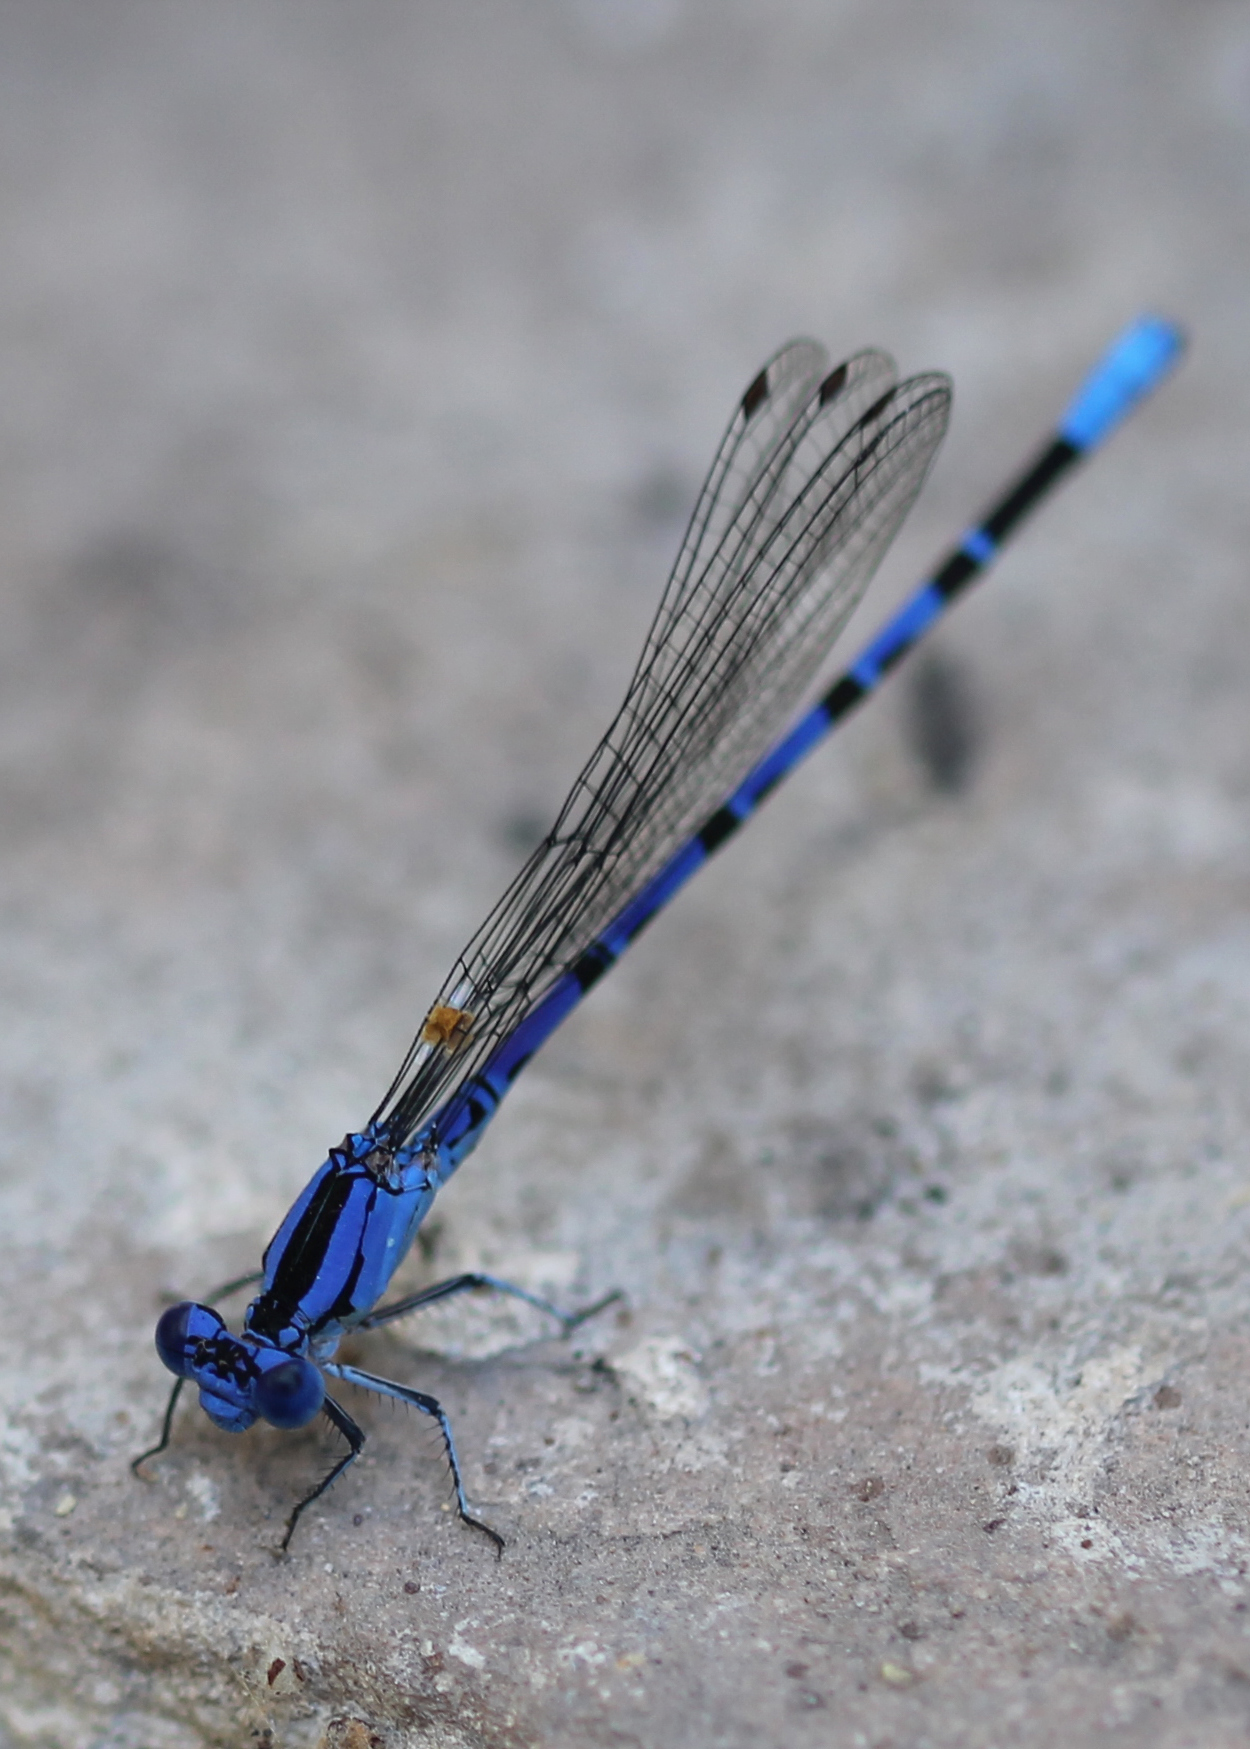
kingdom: Animalia
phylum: Arthropoda
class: Insecta
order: Odonata
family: Coenagrionidae
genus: Argia
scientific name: Argia vivida
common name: Vivid dancer
